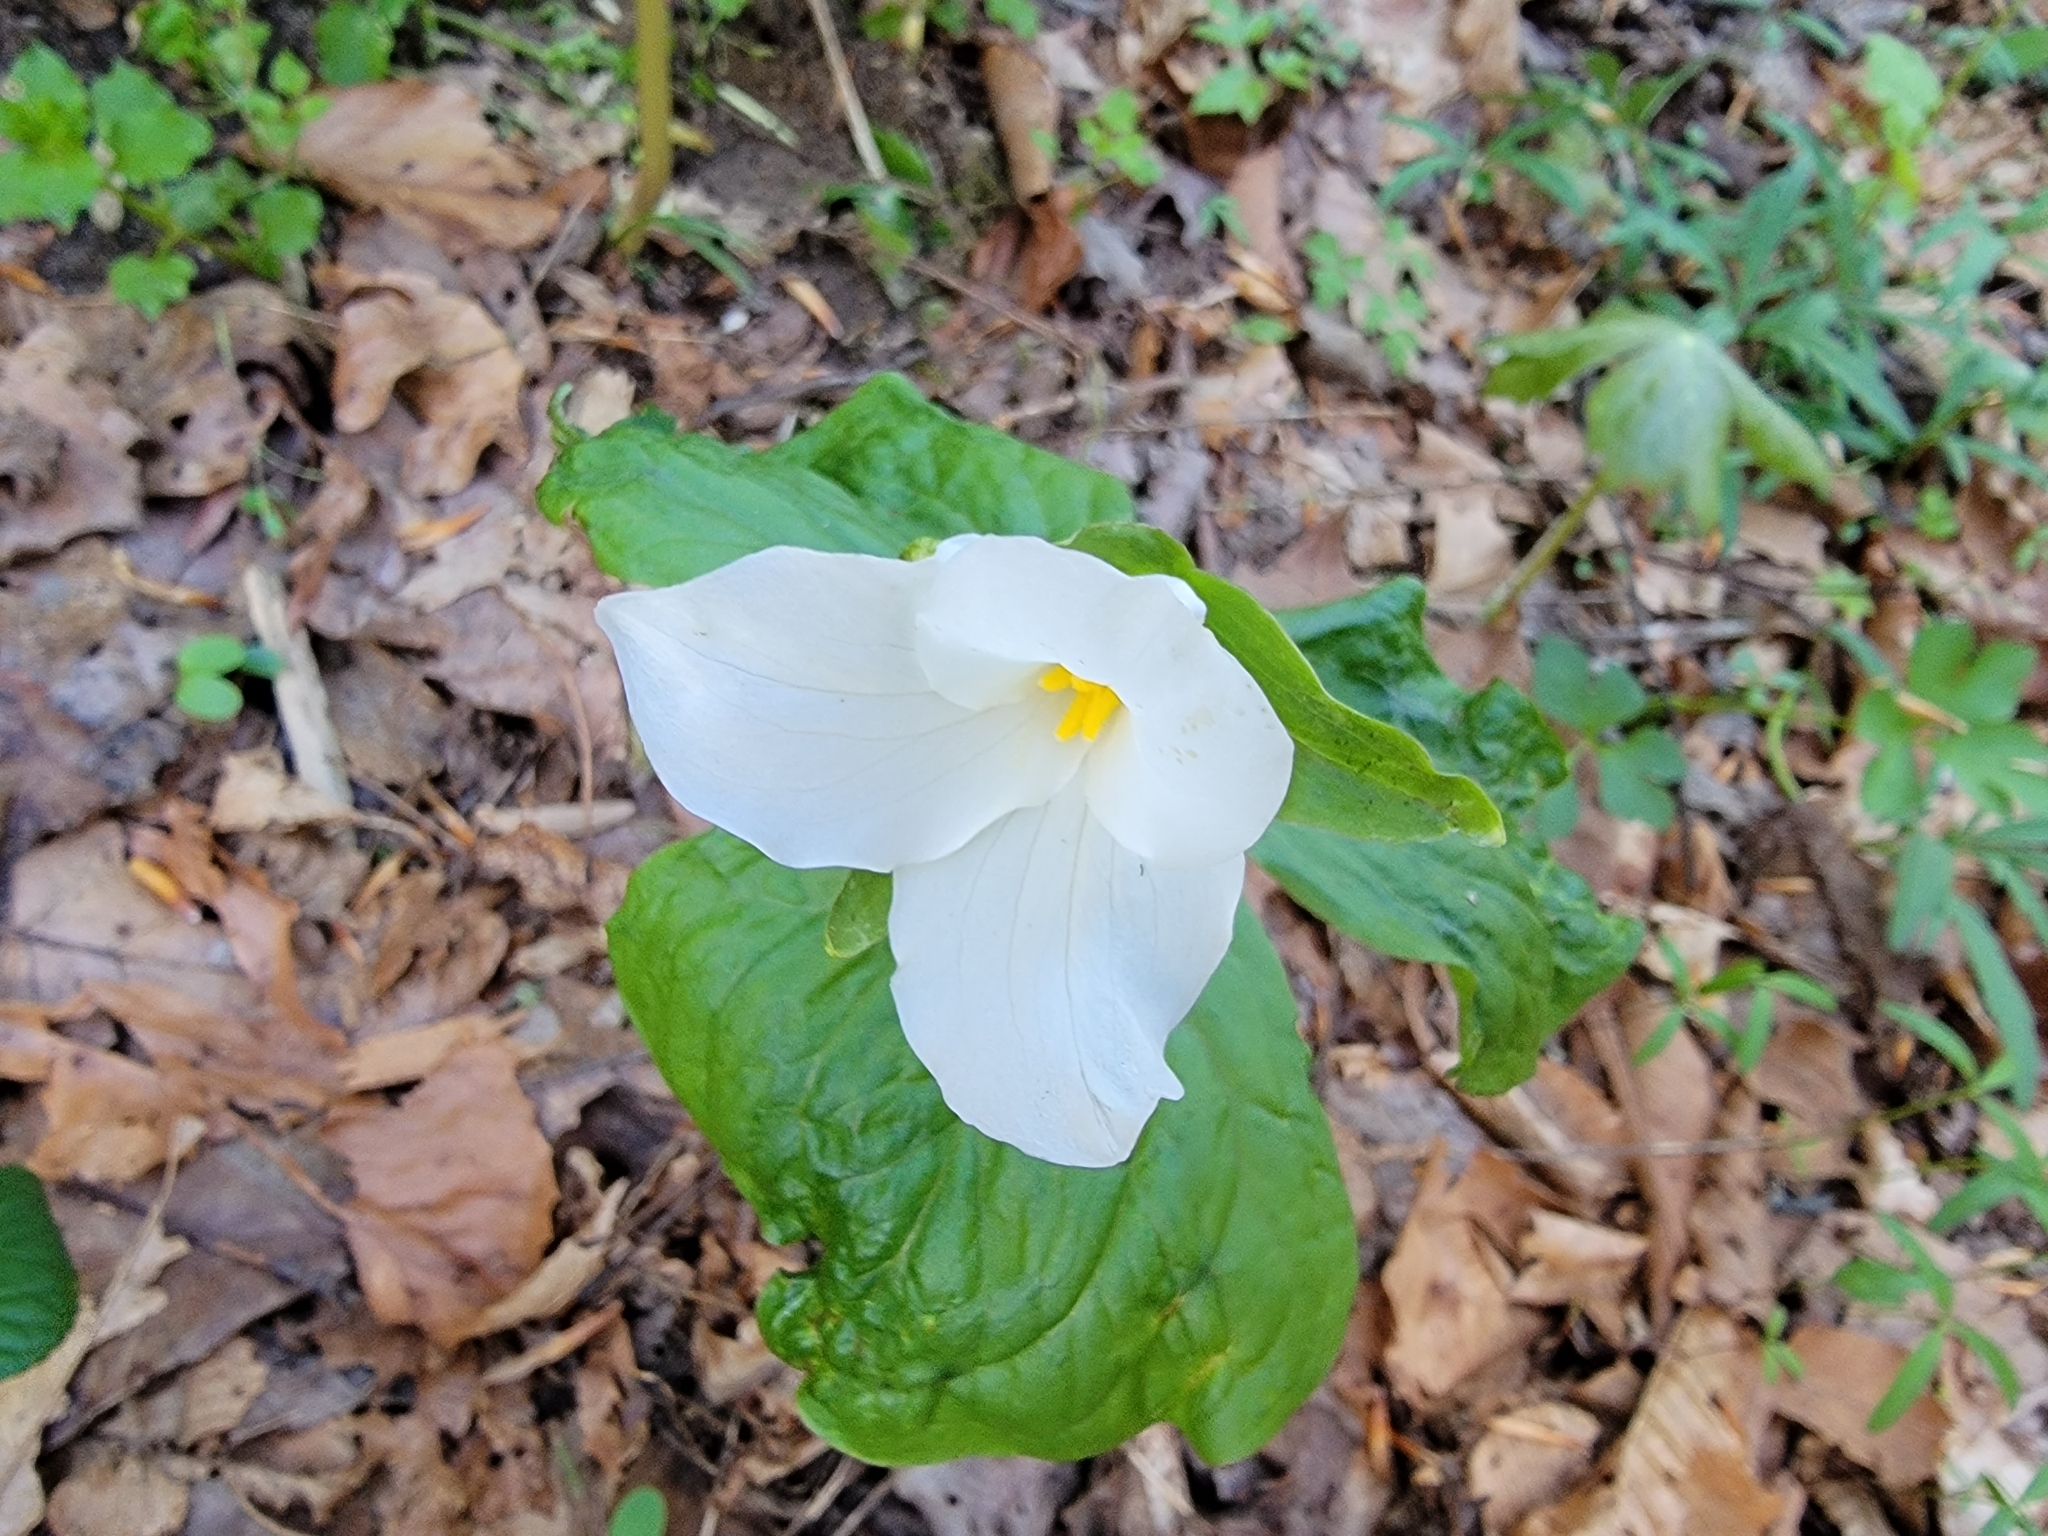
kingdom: Plantae
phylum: Tracheophyta
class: Liliopsida
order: Liliales
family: Melanthiaceae
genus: Trillium
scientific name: Trillium grandiflorum
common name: Great white trillium
